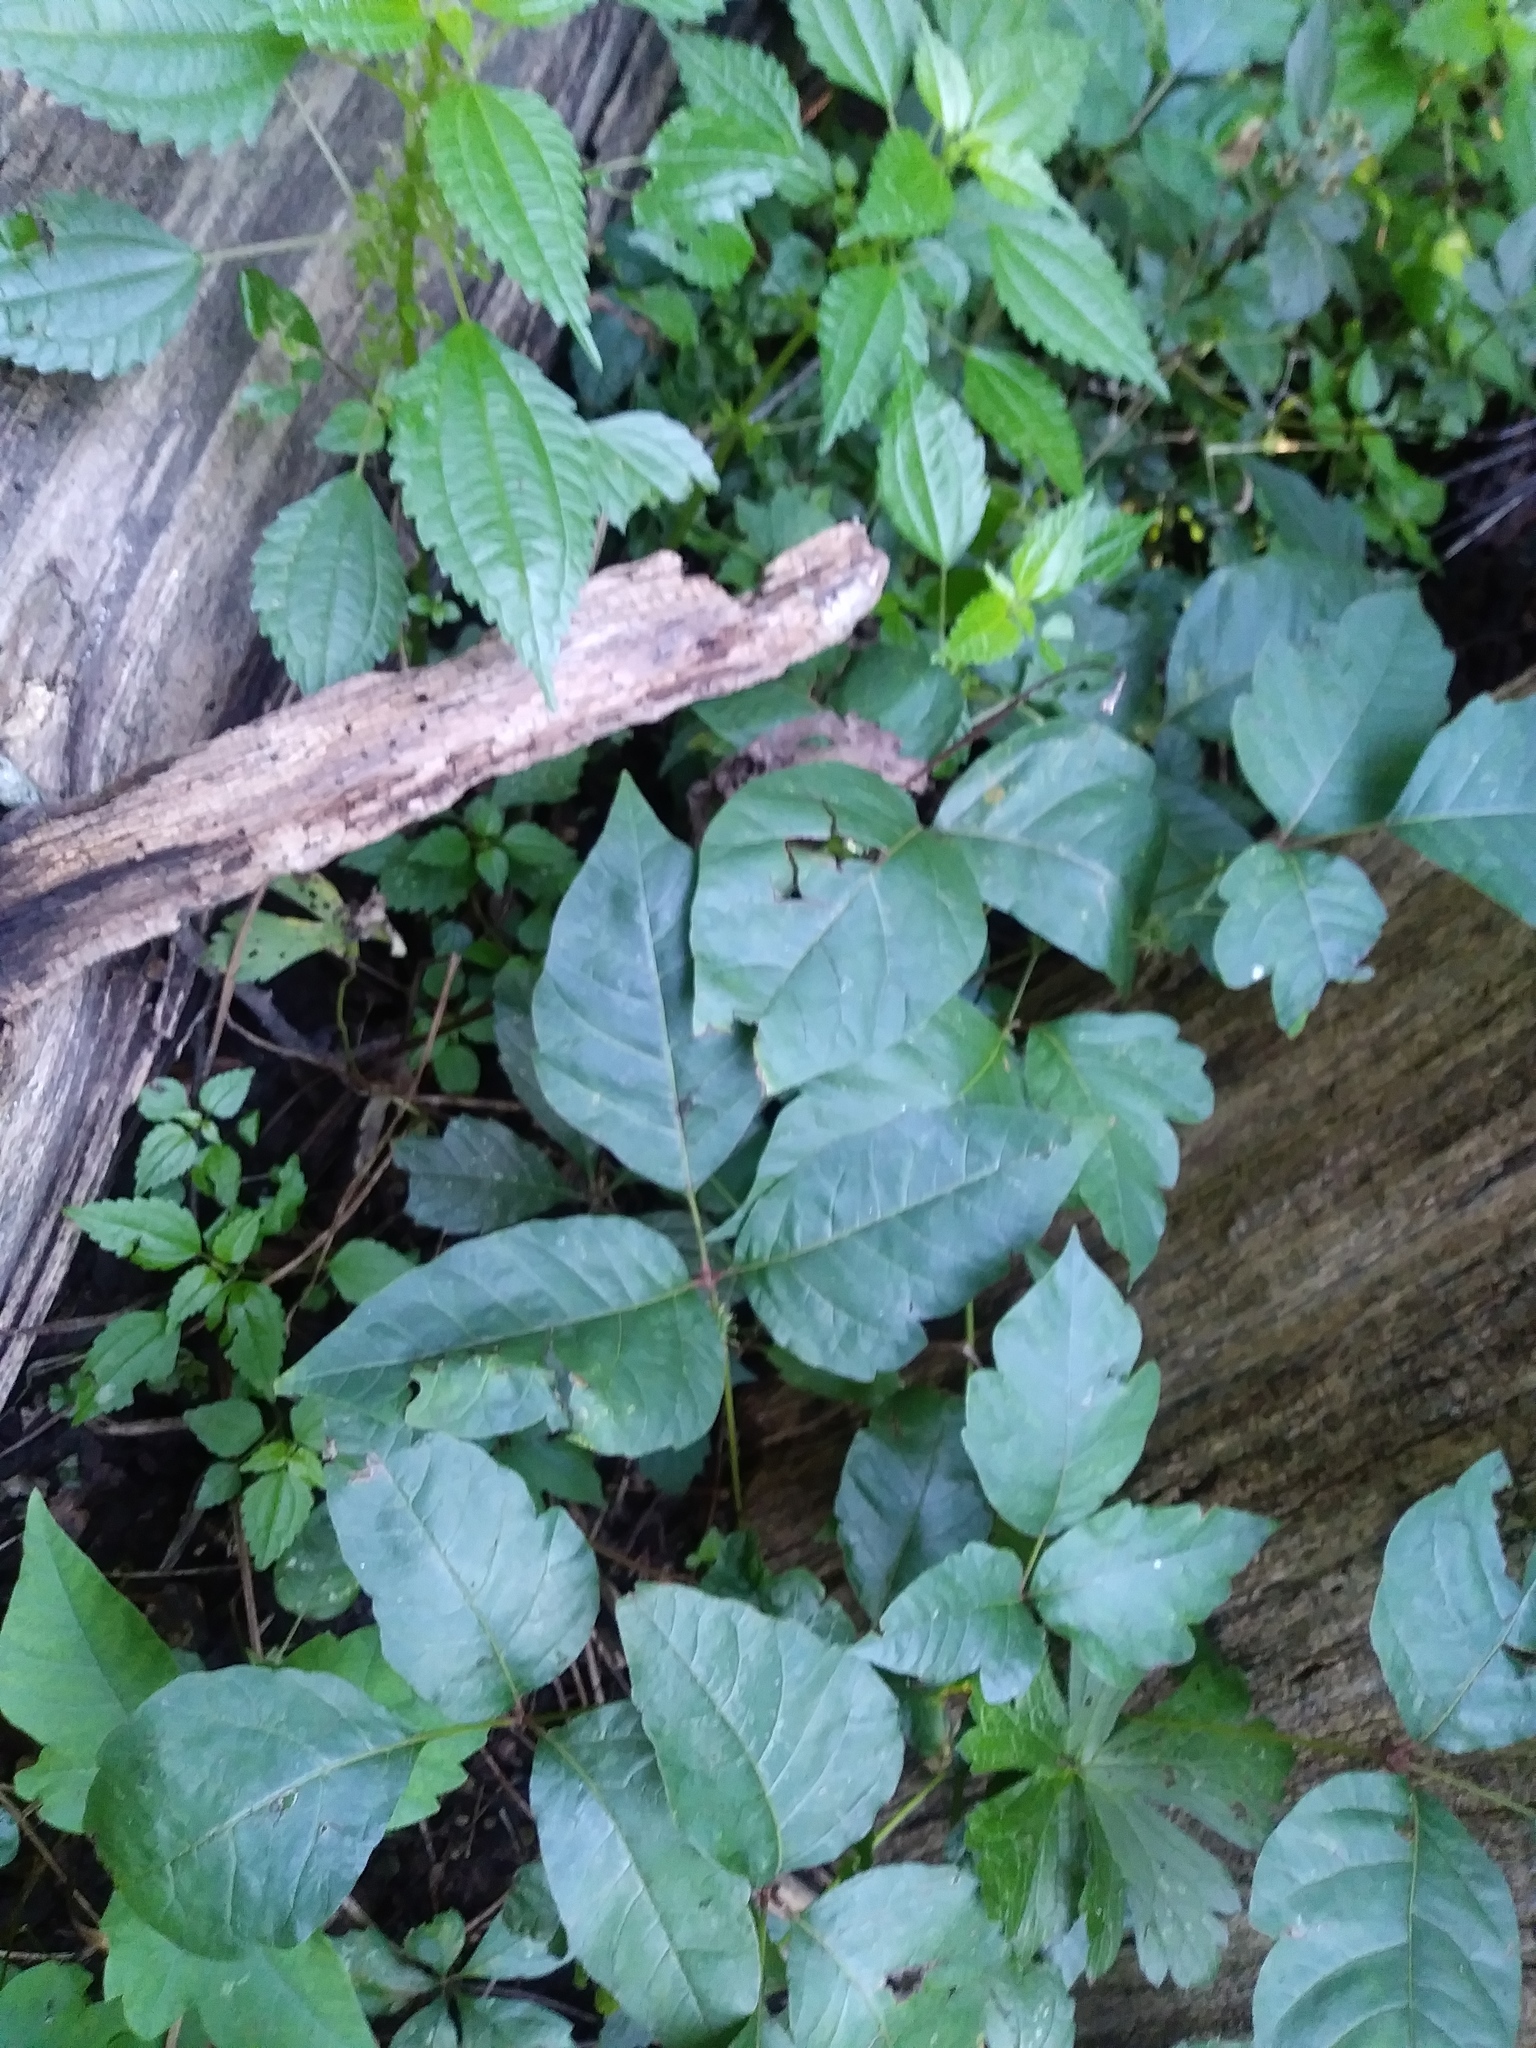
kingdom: Plantae
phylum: Tracheophyta
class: Magnoliopsida
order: Sapindales
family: Anacardiaceae
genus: Toxicodendron
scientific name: Toxicodendron radicans
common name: Poison ivy
